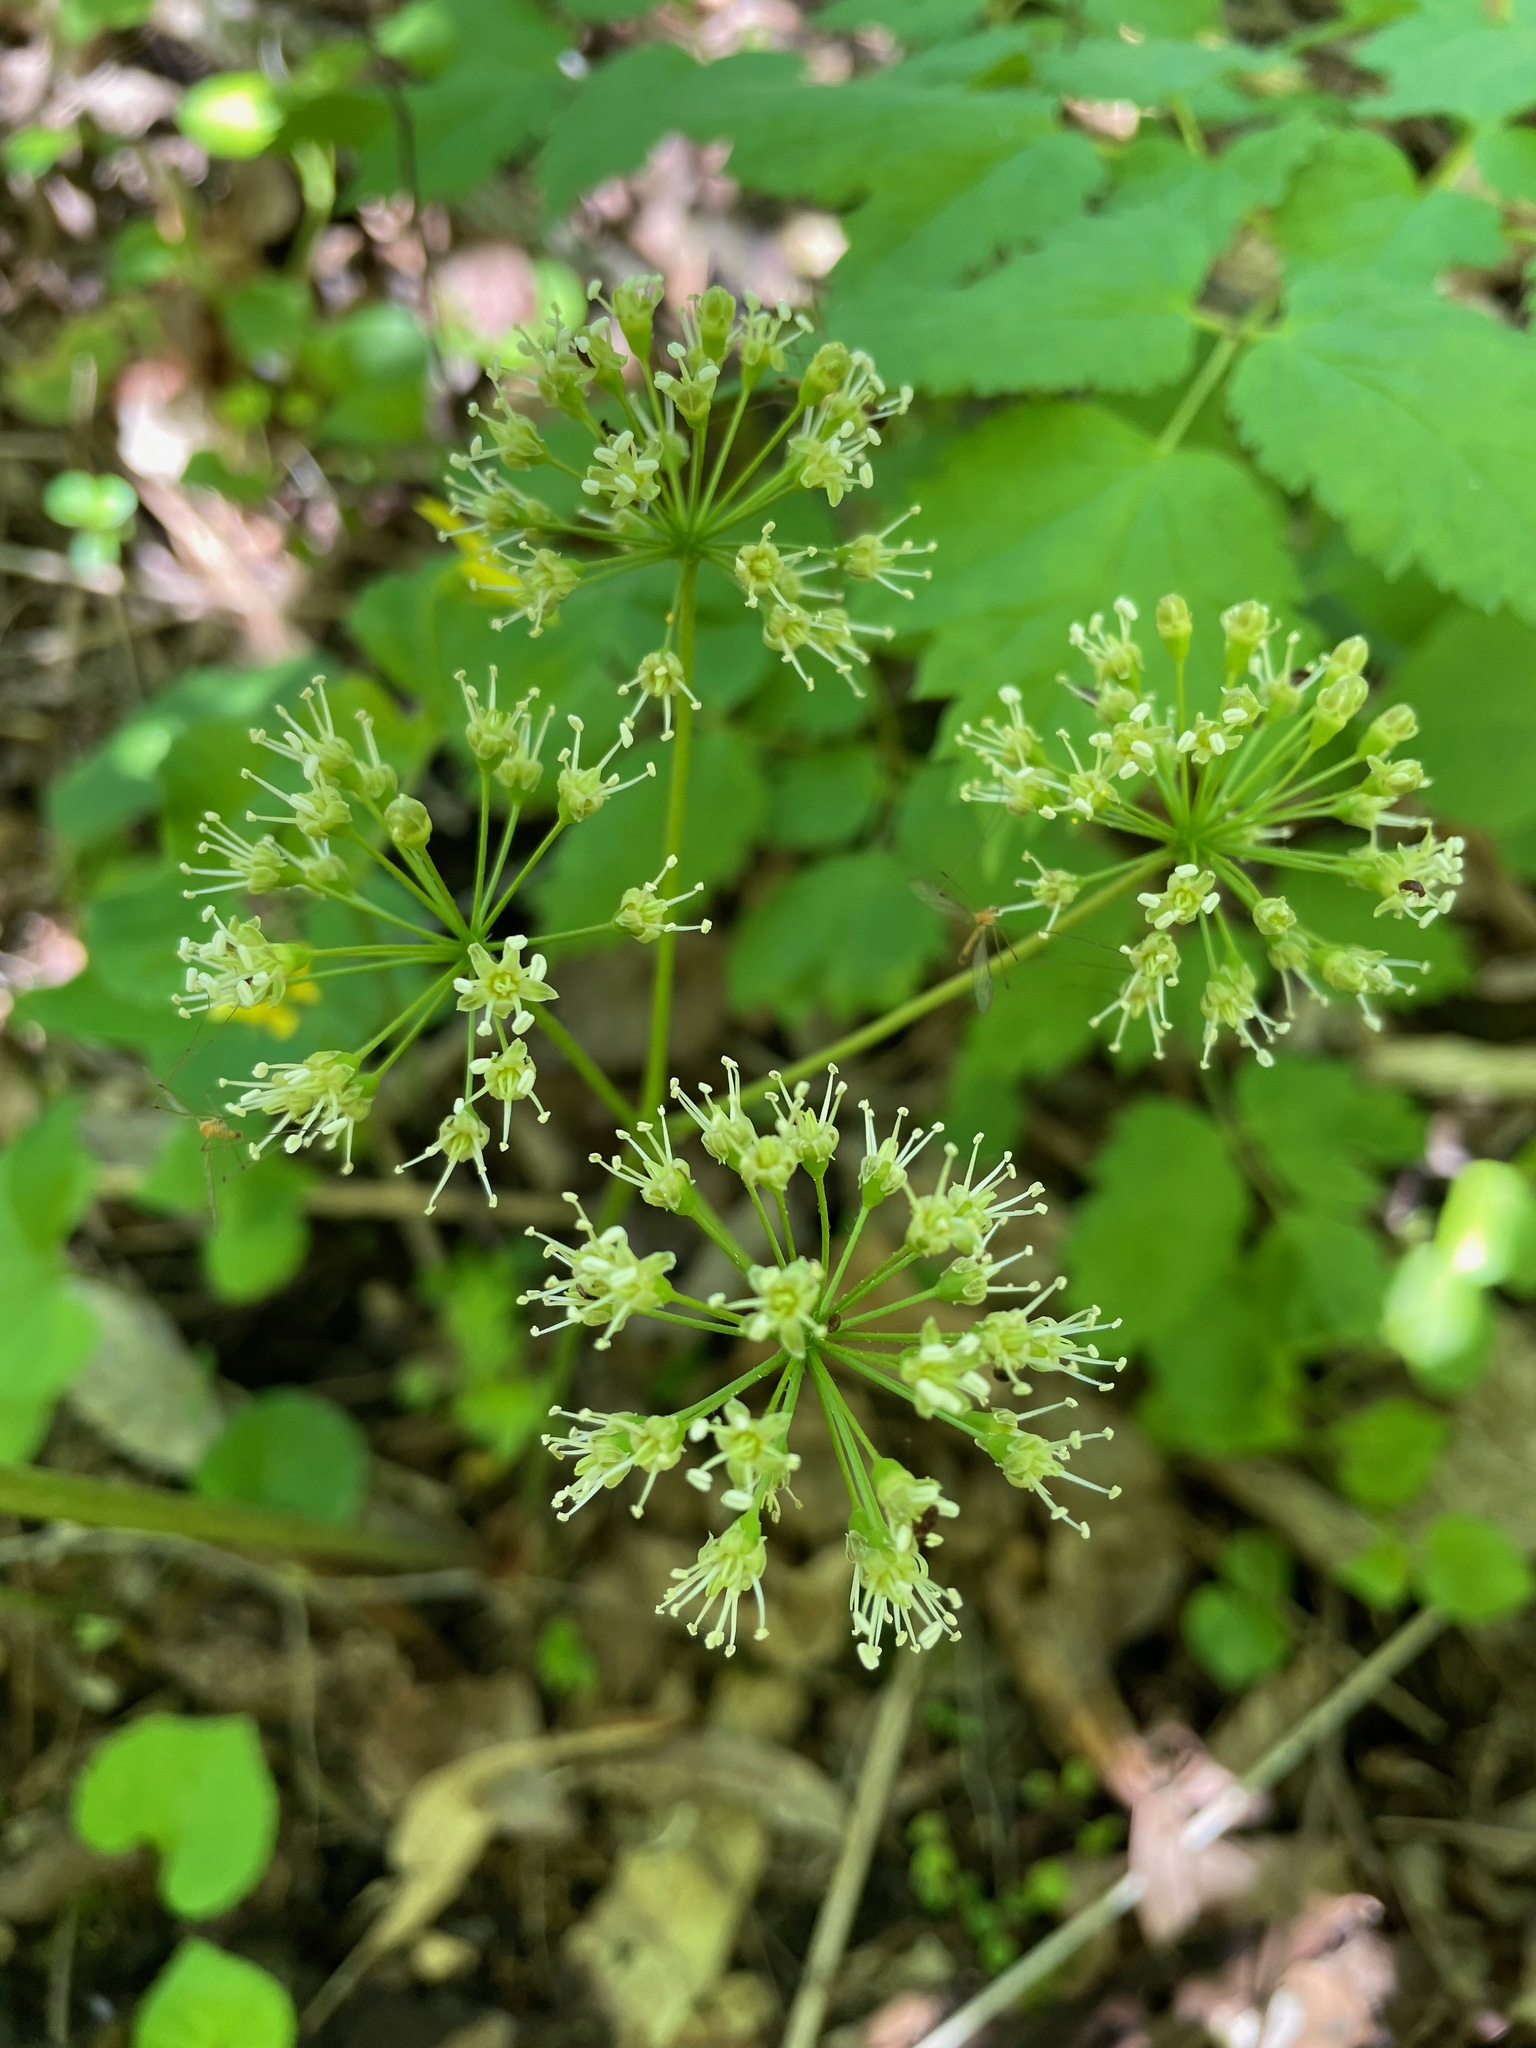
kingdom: Plantae
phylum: Tracheophyta
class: Magnoliopsida
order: Apiales
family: Araliaceae
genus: Aralia
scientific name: Aralia nudicaulis
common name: Wild sarsaparilla
